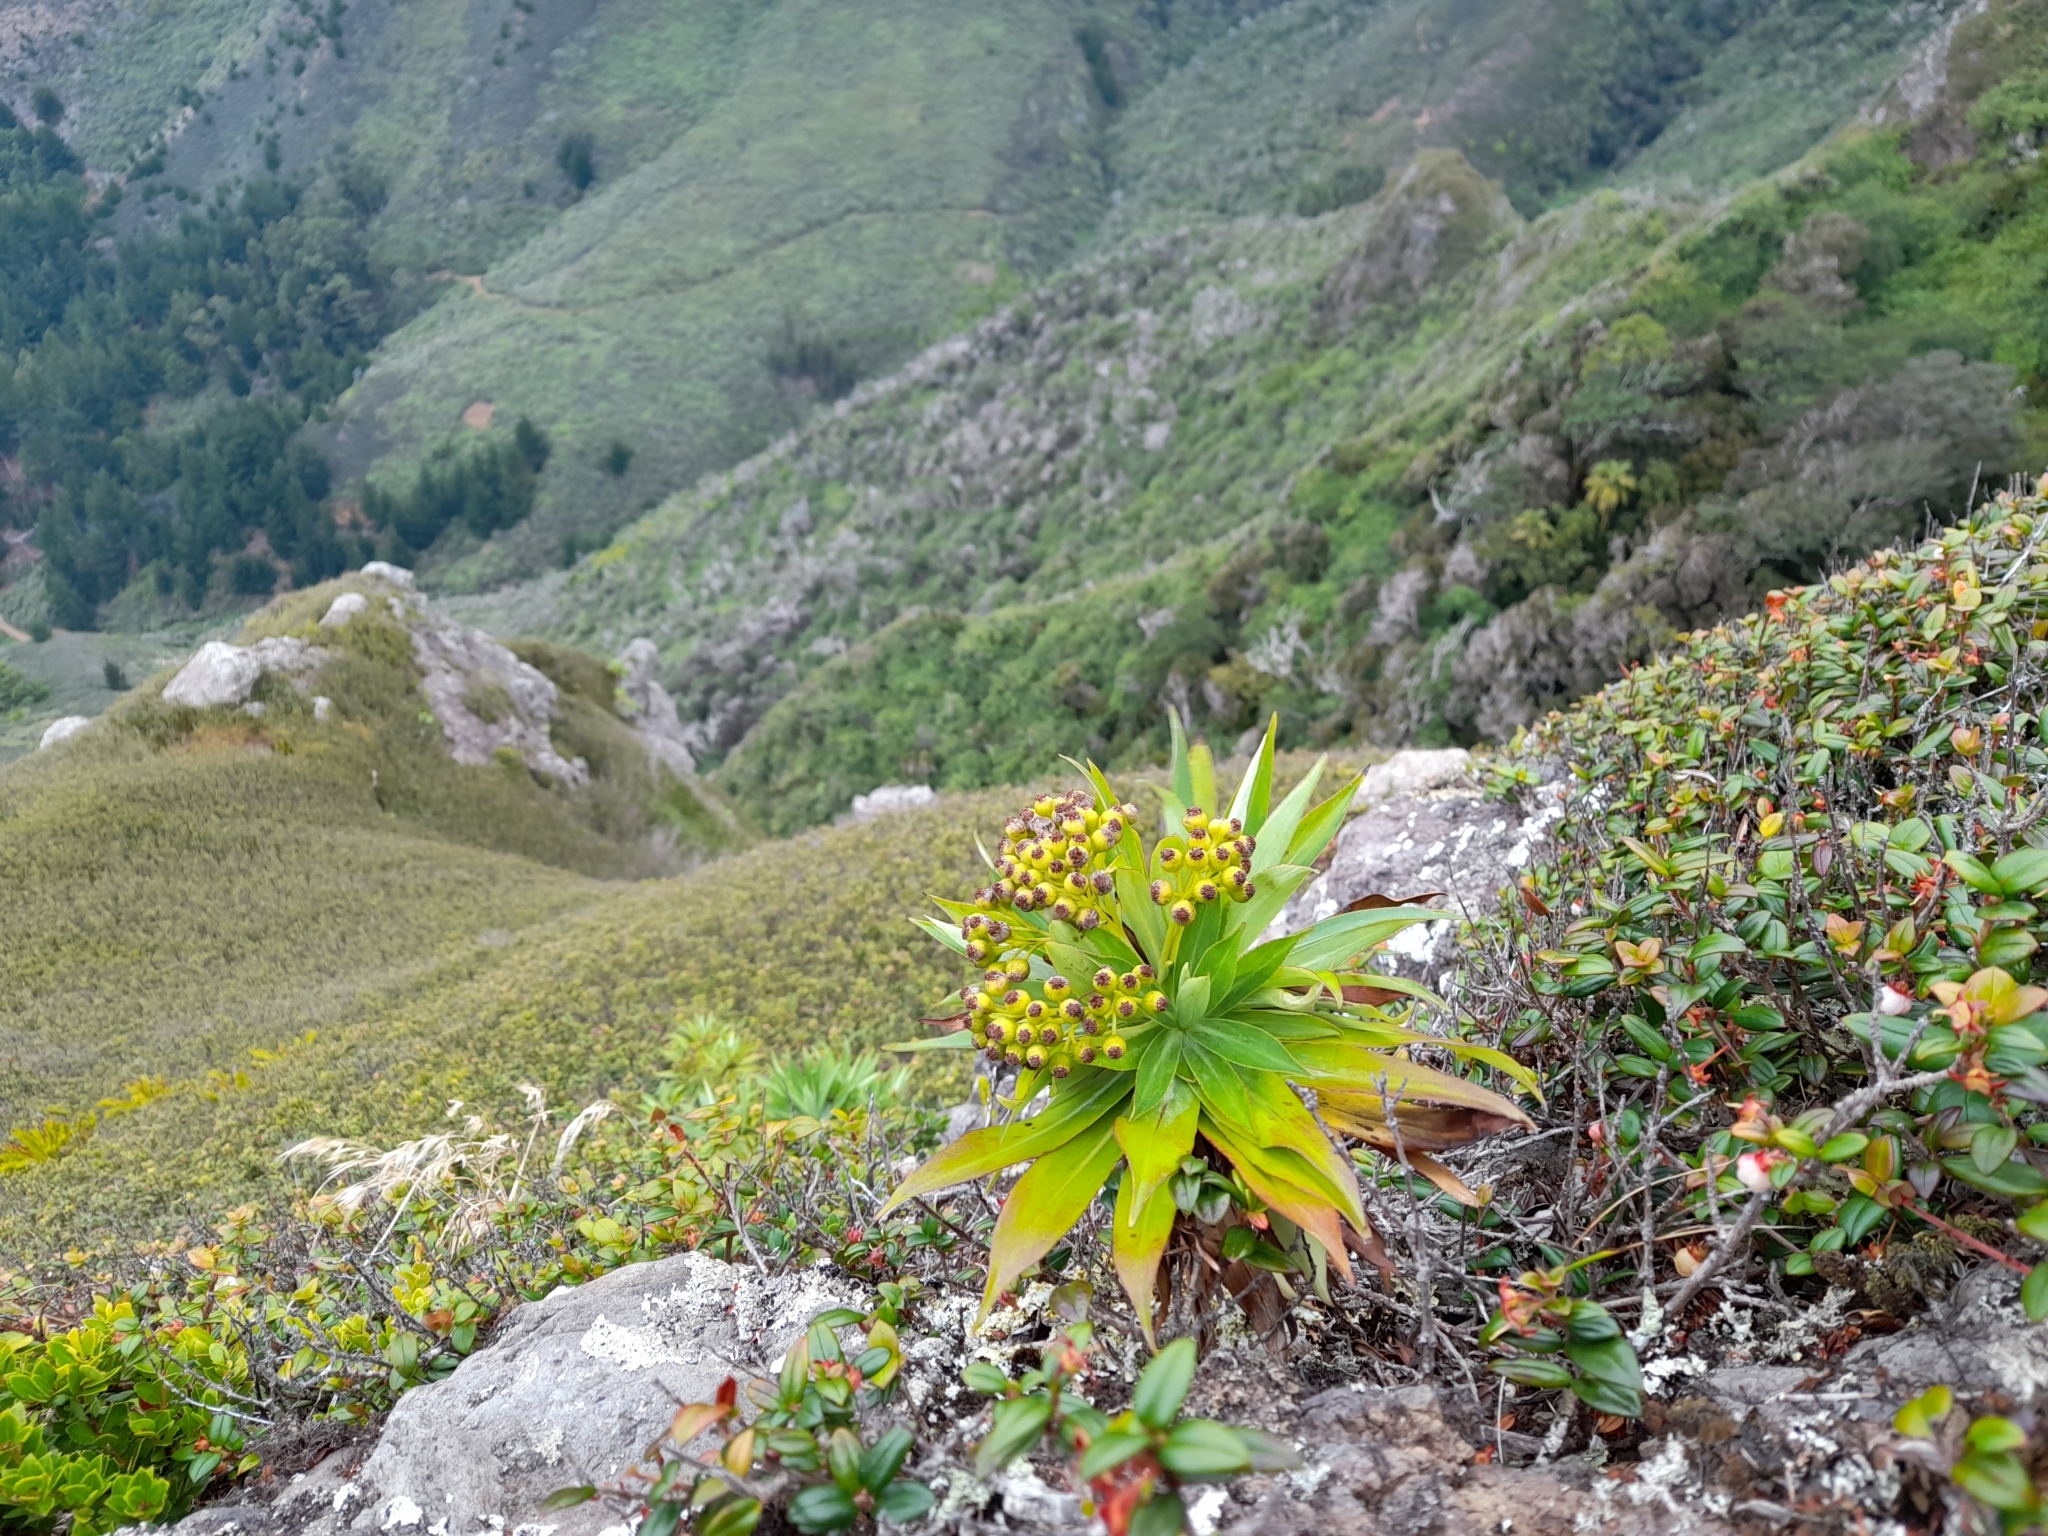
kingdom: Plantae
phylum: Tracheophyta
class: Magnoliopsida
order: Asterales
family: Asteraceae
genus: Robinsonia
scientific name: Robinsonia gayana
